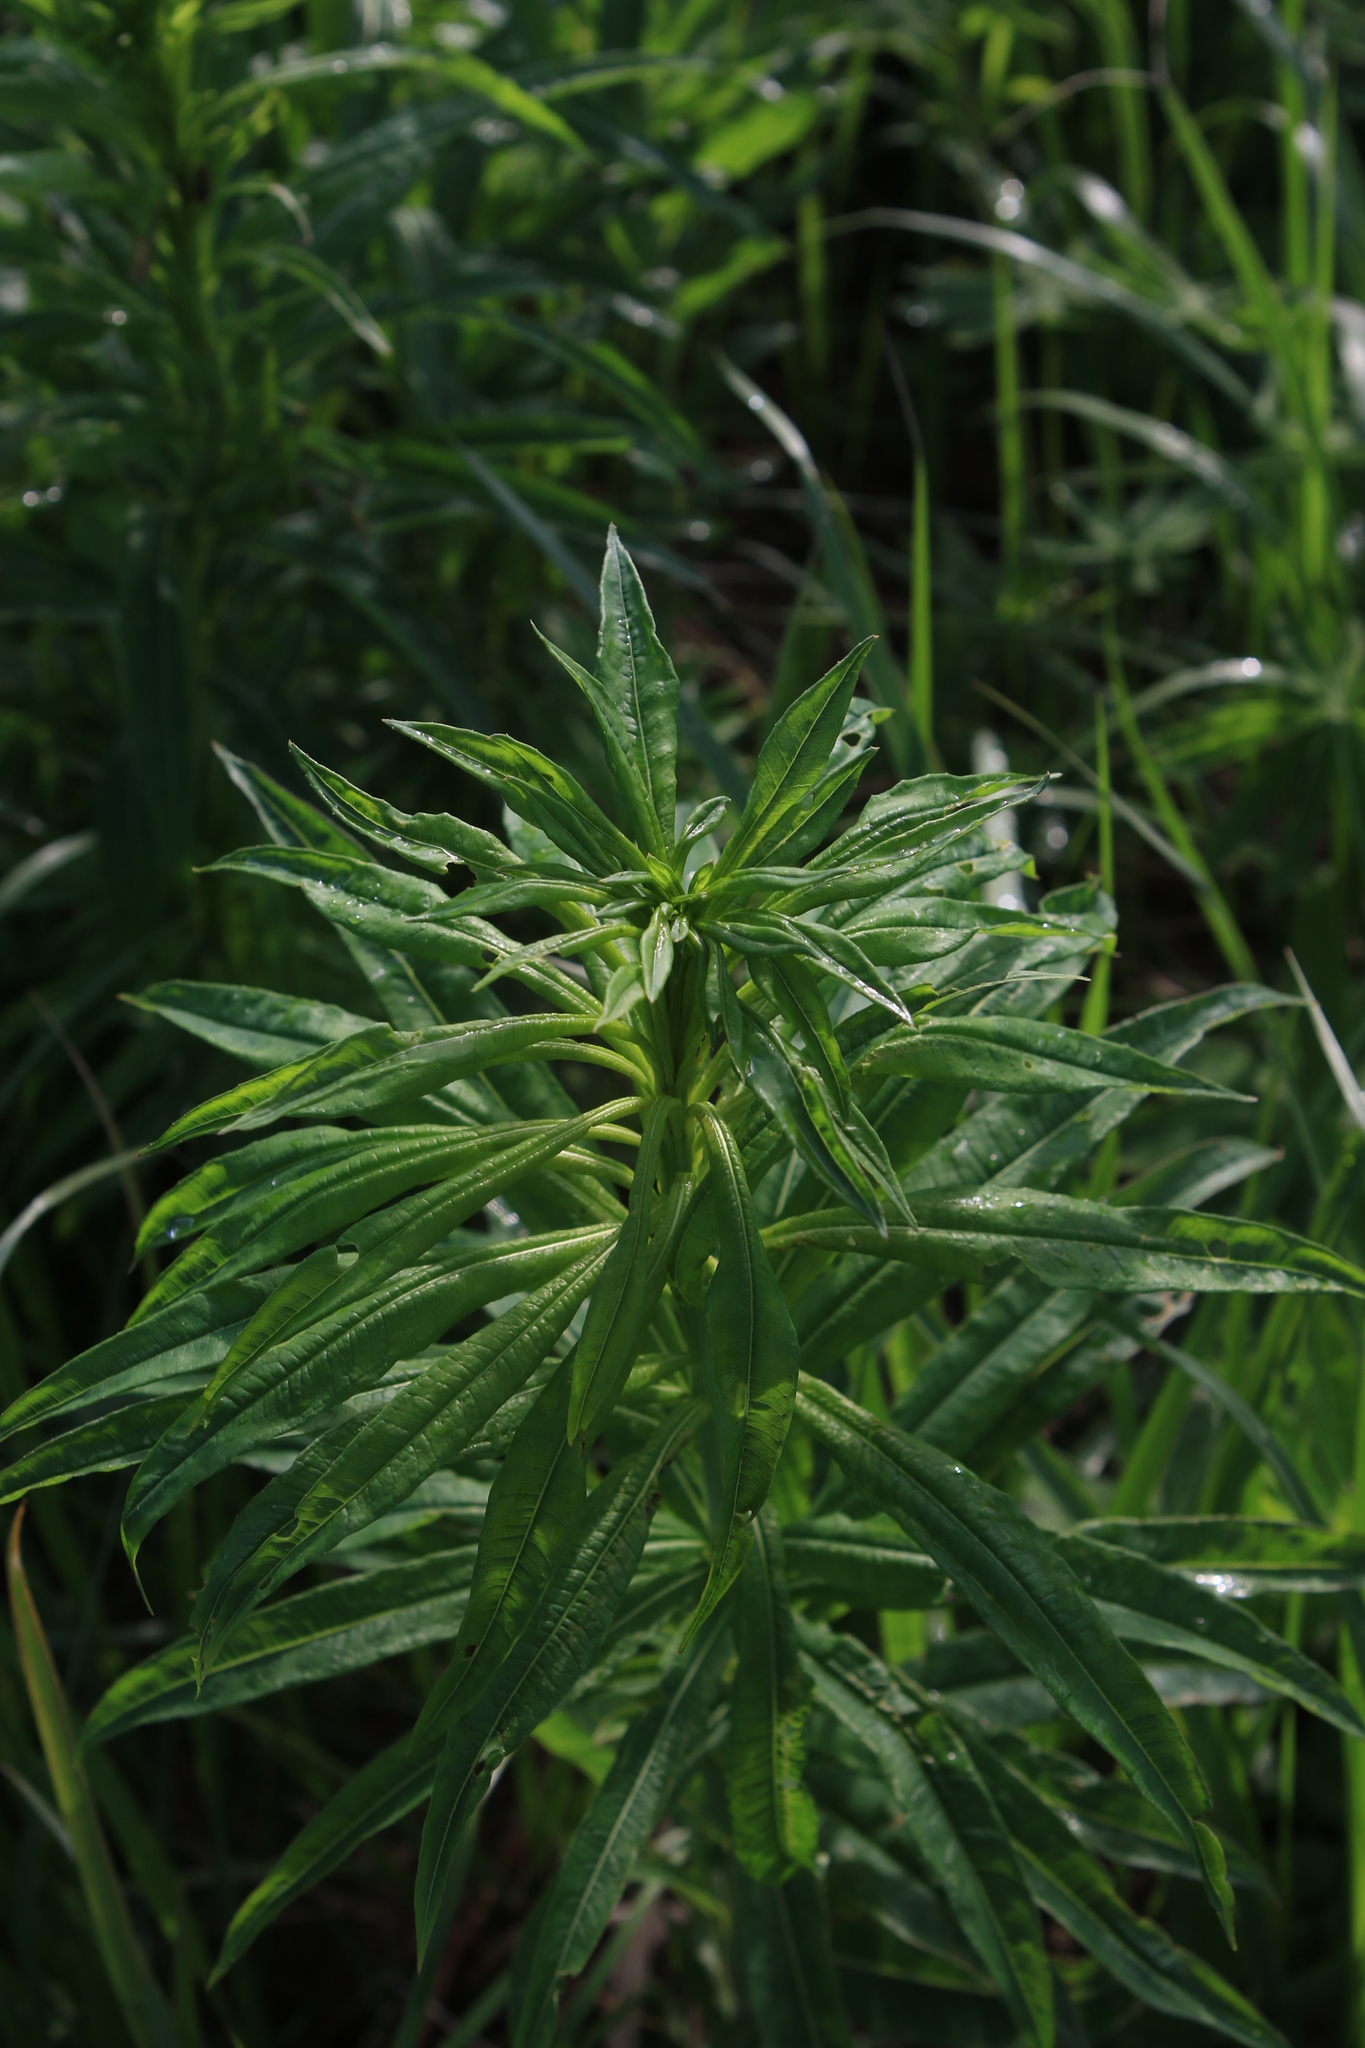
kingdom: Plantae
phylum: Tracheophyta
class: Magnoliopsida
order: Myrtales
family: Onagraceae
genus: Chamaenerion
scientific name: Chamaenerion angustifolium
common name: Fireweed
